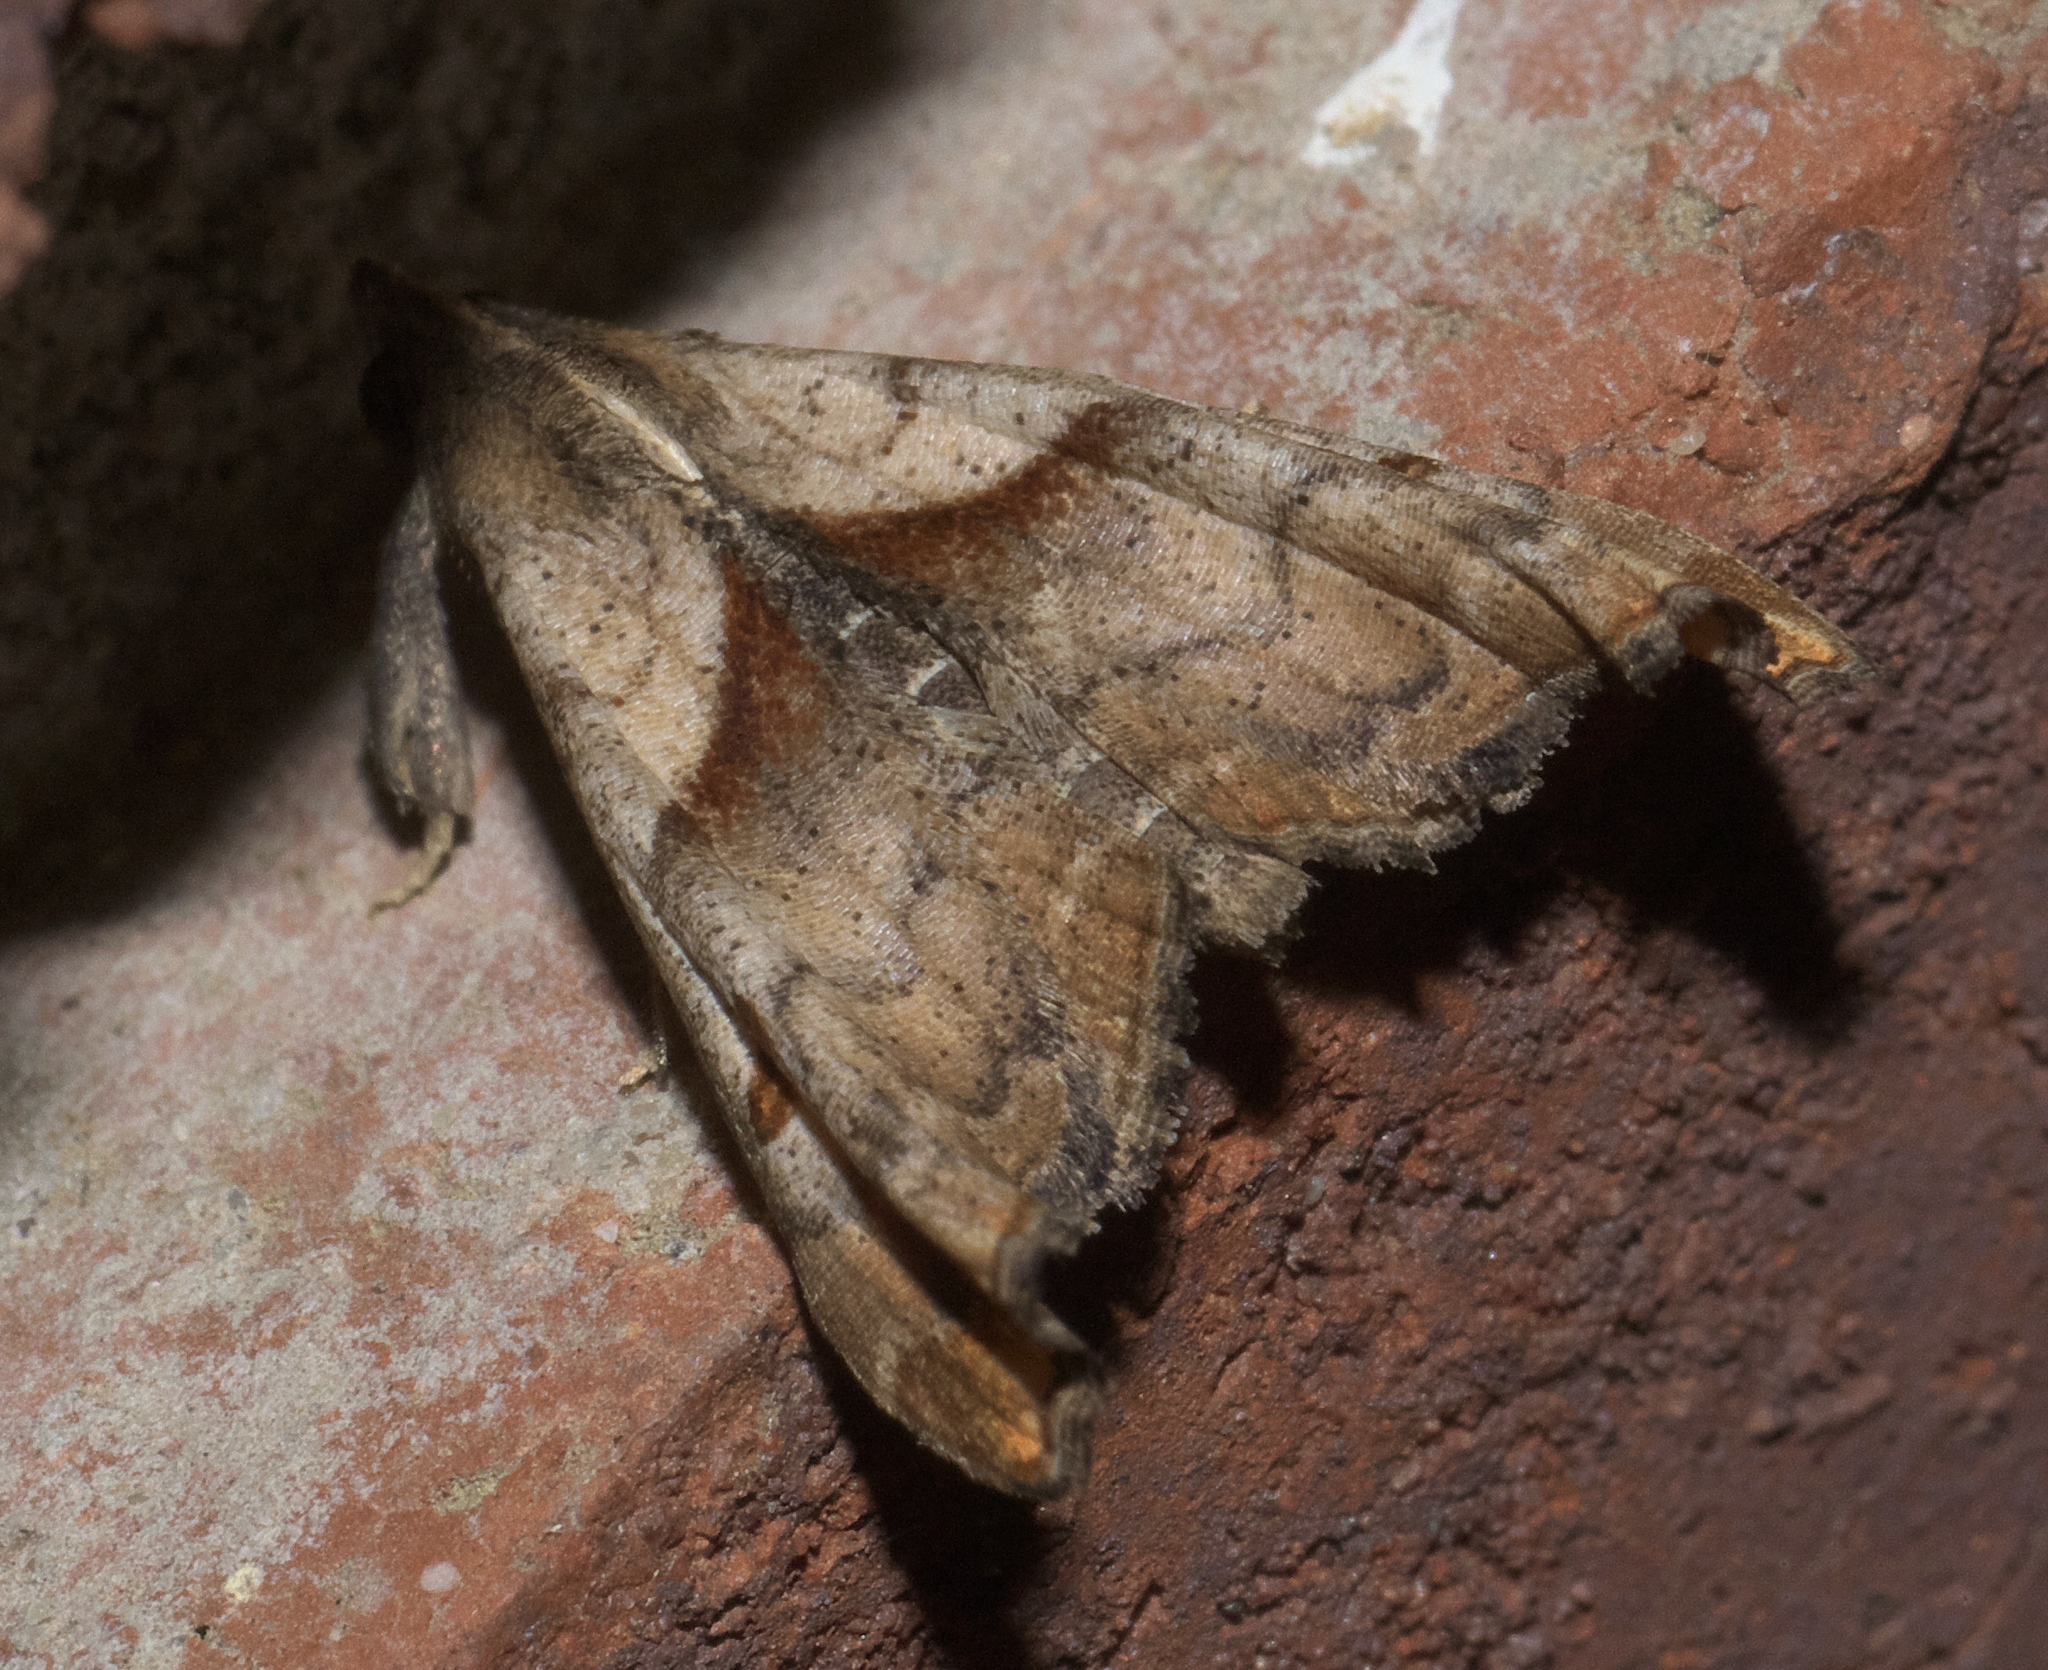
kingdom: Animalia
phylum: Arthropoda
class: Insecta
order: Lepidoptera
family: Erebidae
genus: Palthis
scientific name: Palthis angulalis
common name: Dark-spotted palthis moth
